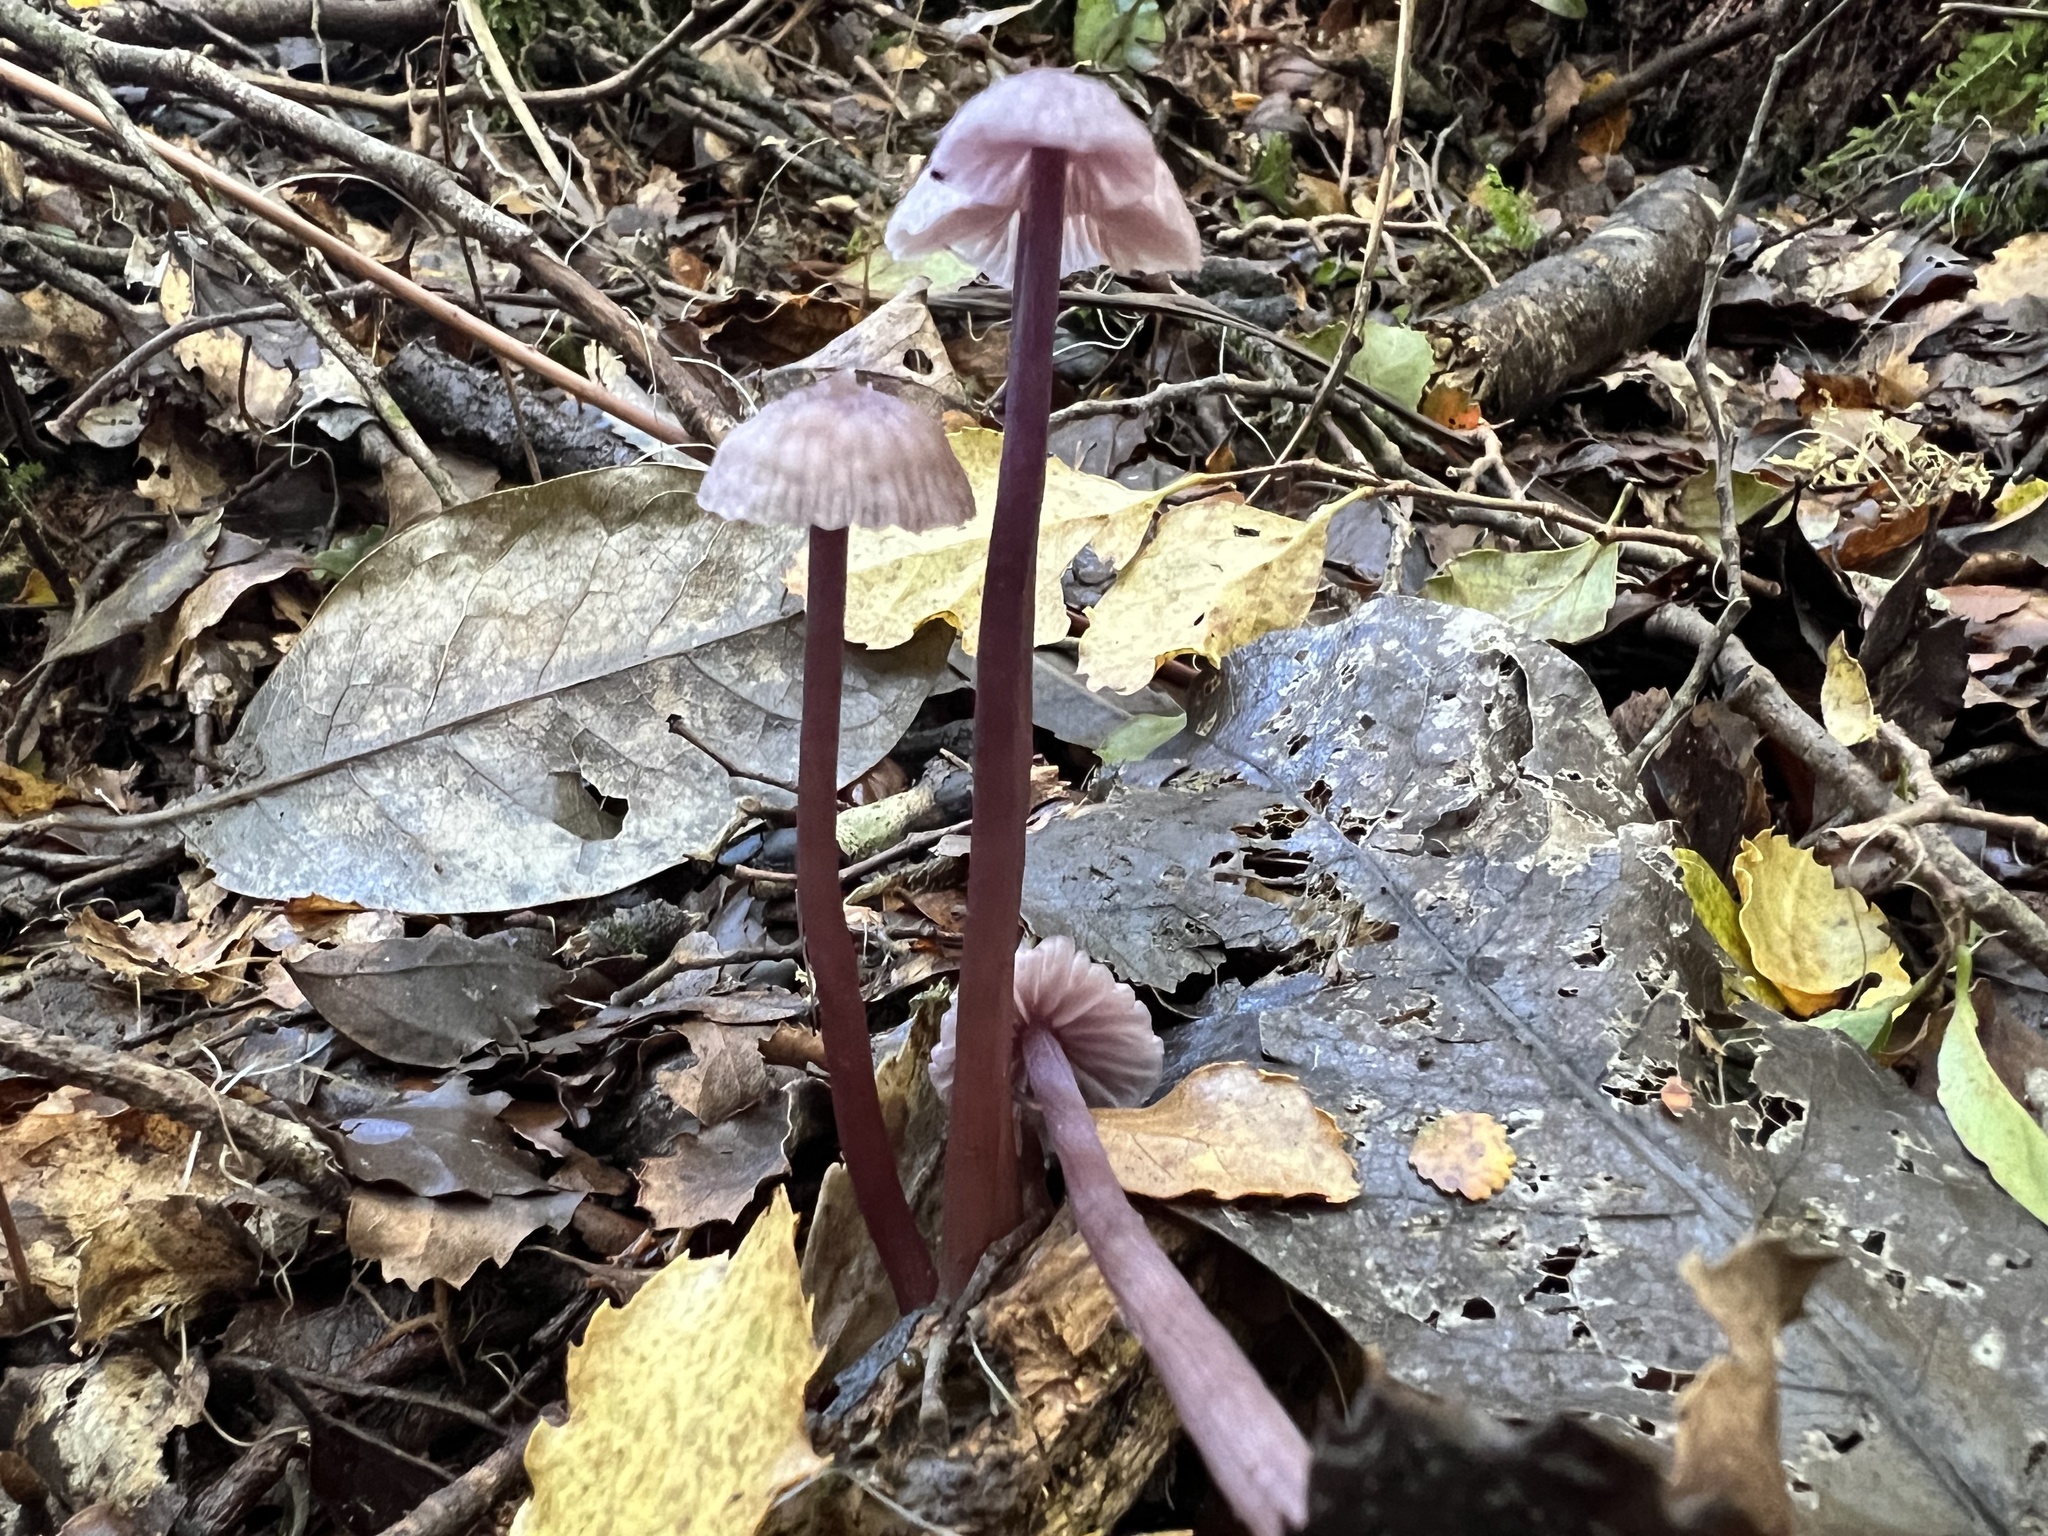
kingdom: Fungi
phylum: Basidiomycota
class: Agaricomycetes
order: Agaricales
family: Hydnangiaceae
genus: Laccaria
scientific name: Laccaria masoniae
